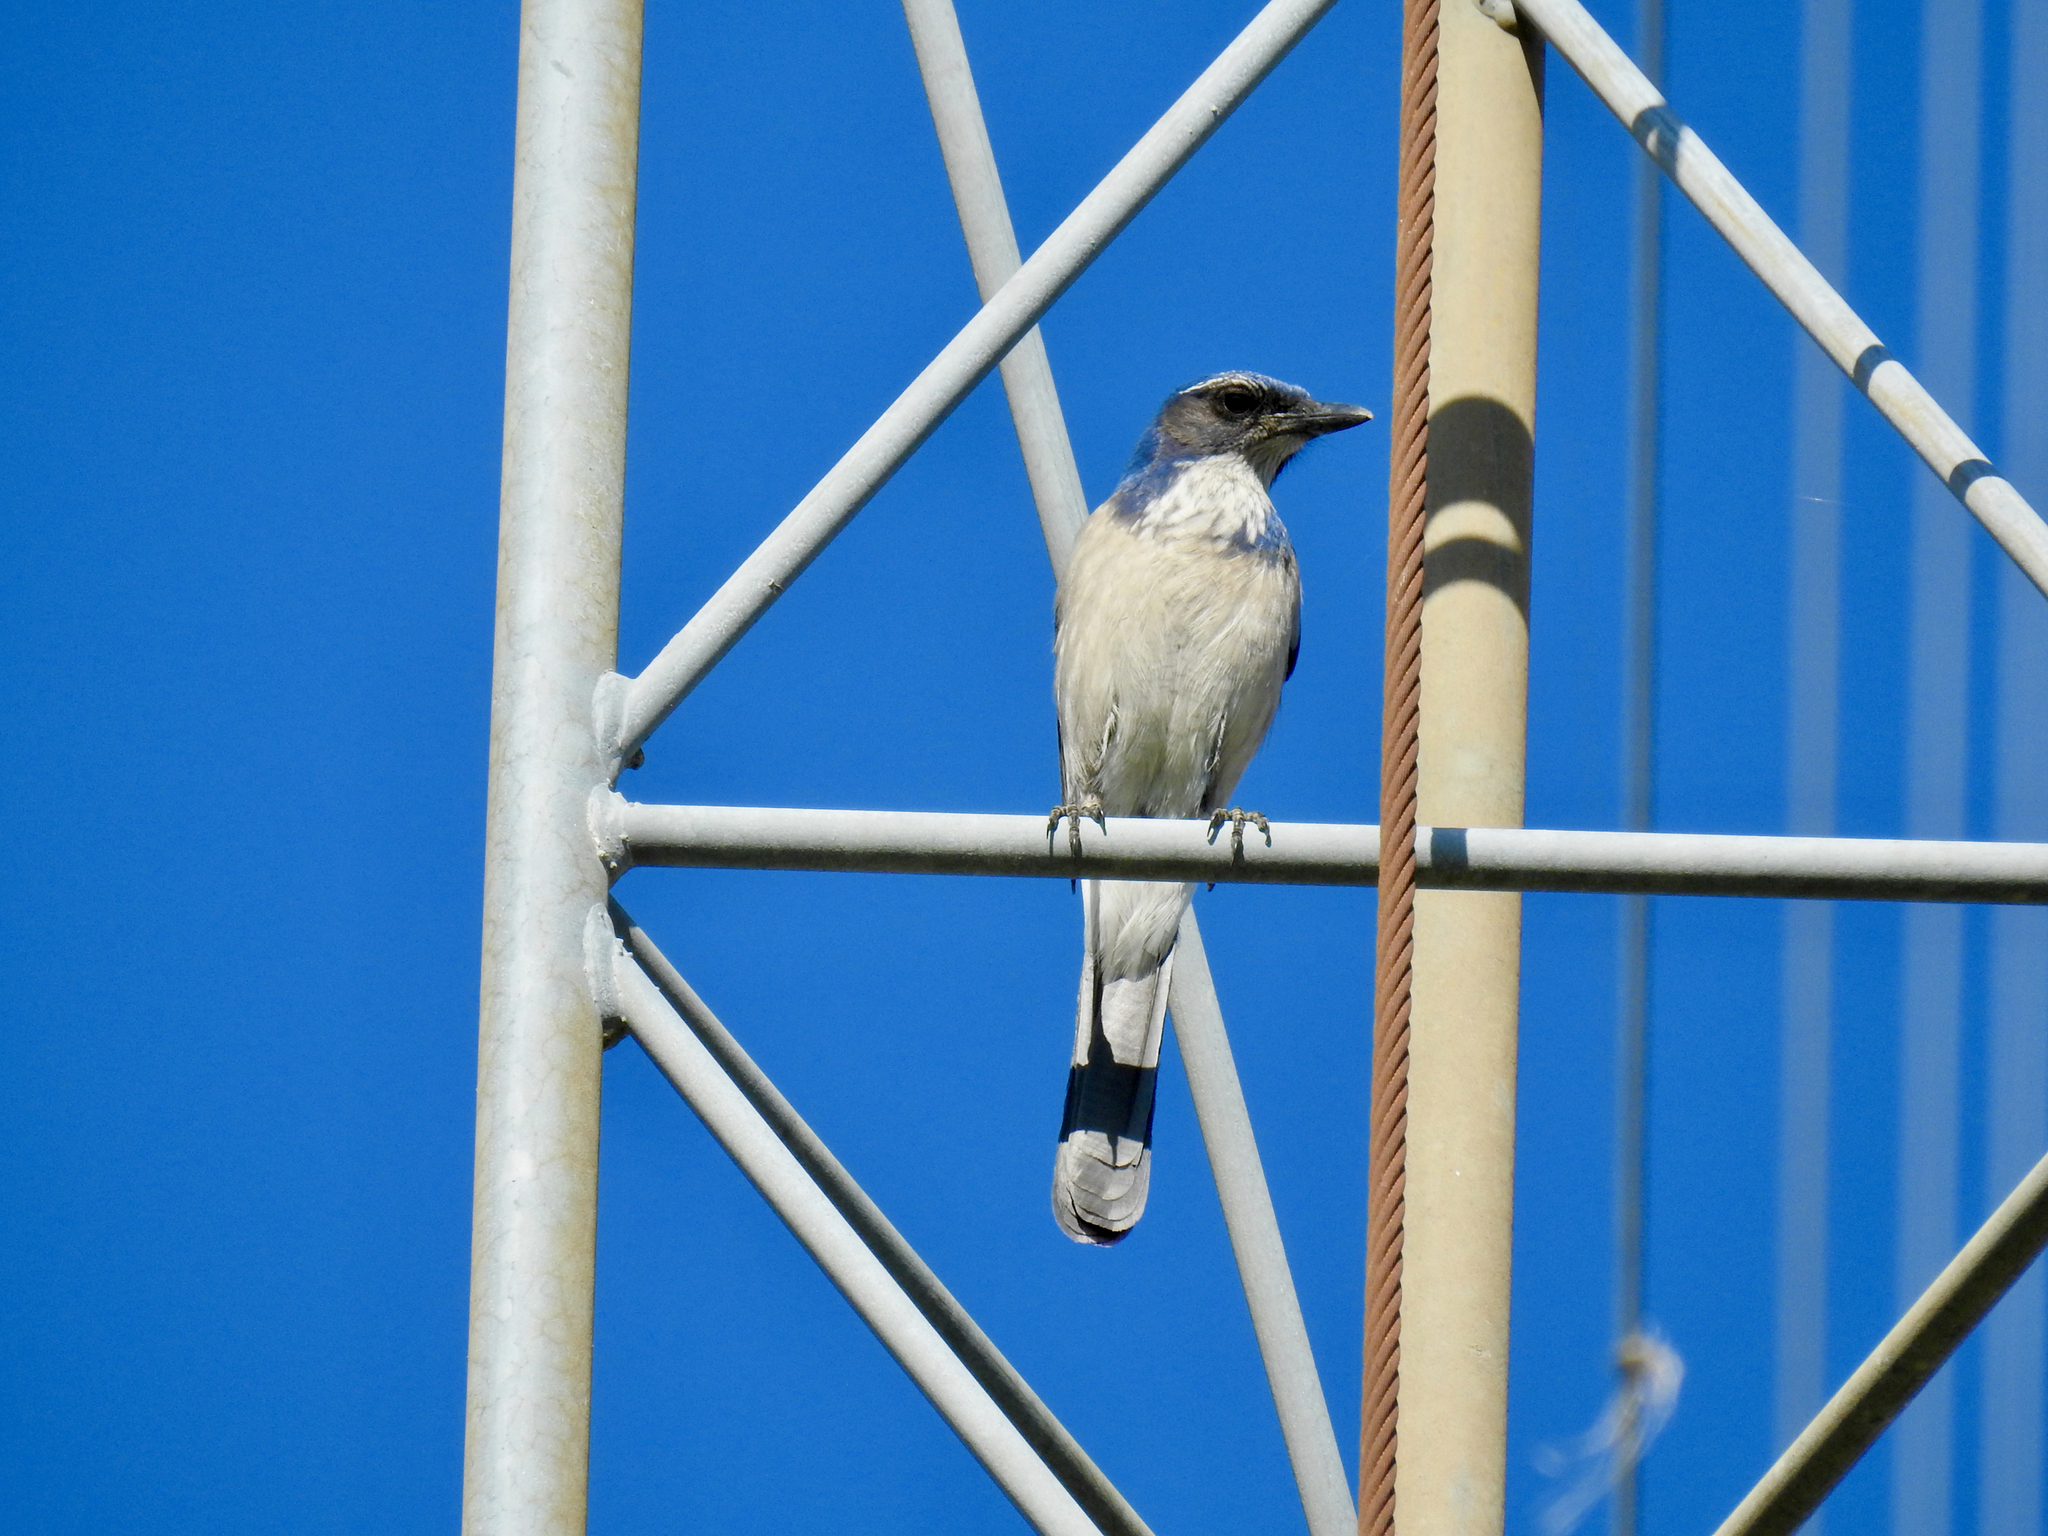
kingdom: Animalia
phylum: Chordata
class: Aves
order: Passeriformes
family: Corvidae
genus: Aphelocoma
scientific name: Aphelocoma californica
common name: California scrub-jay
